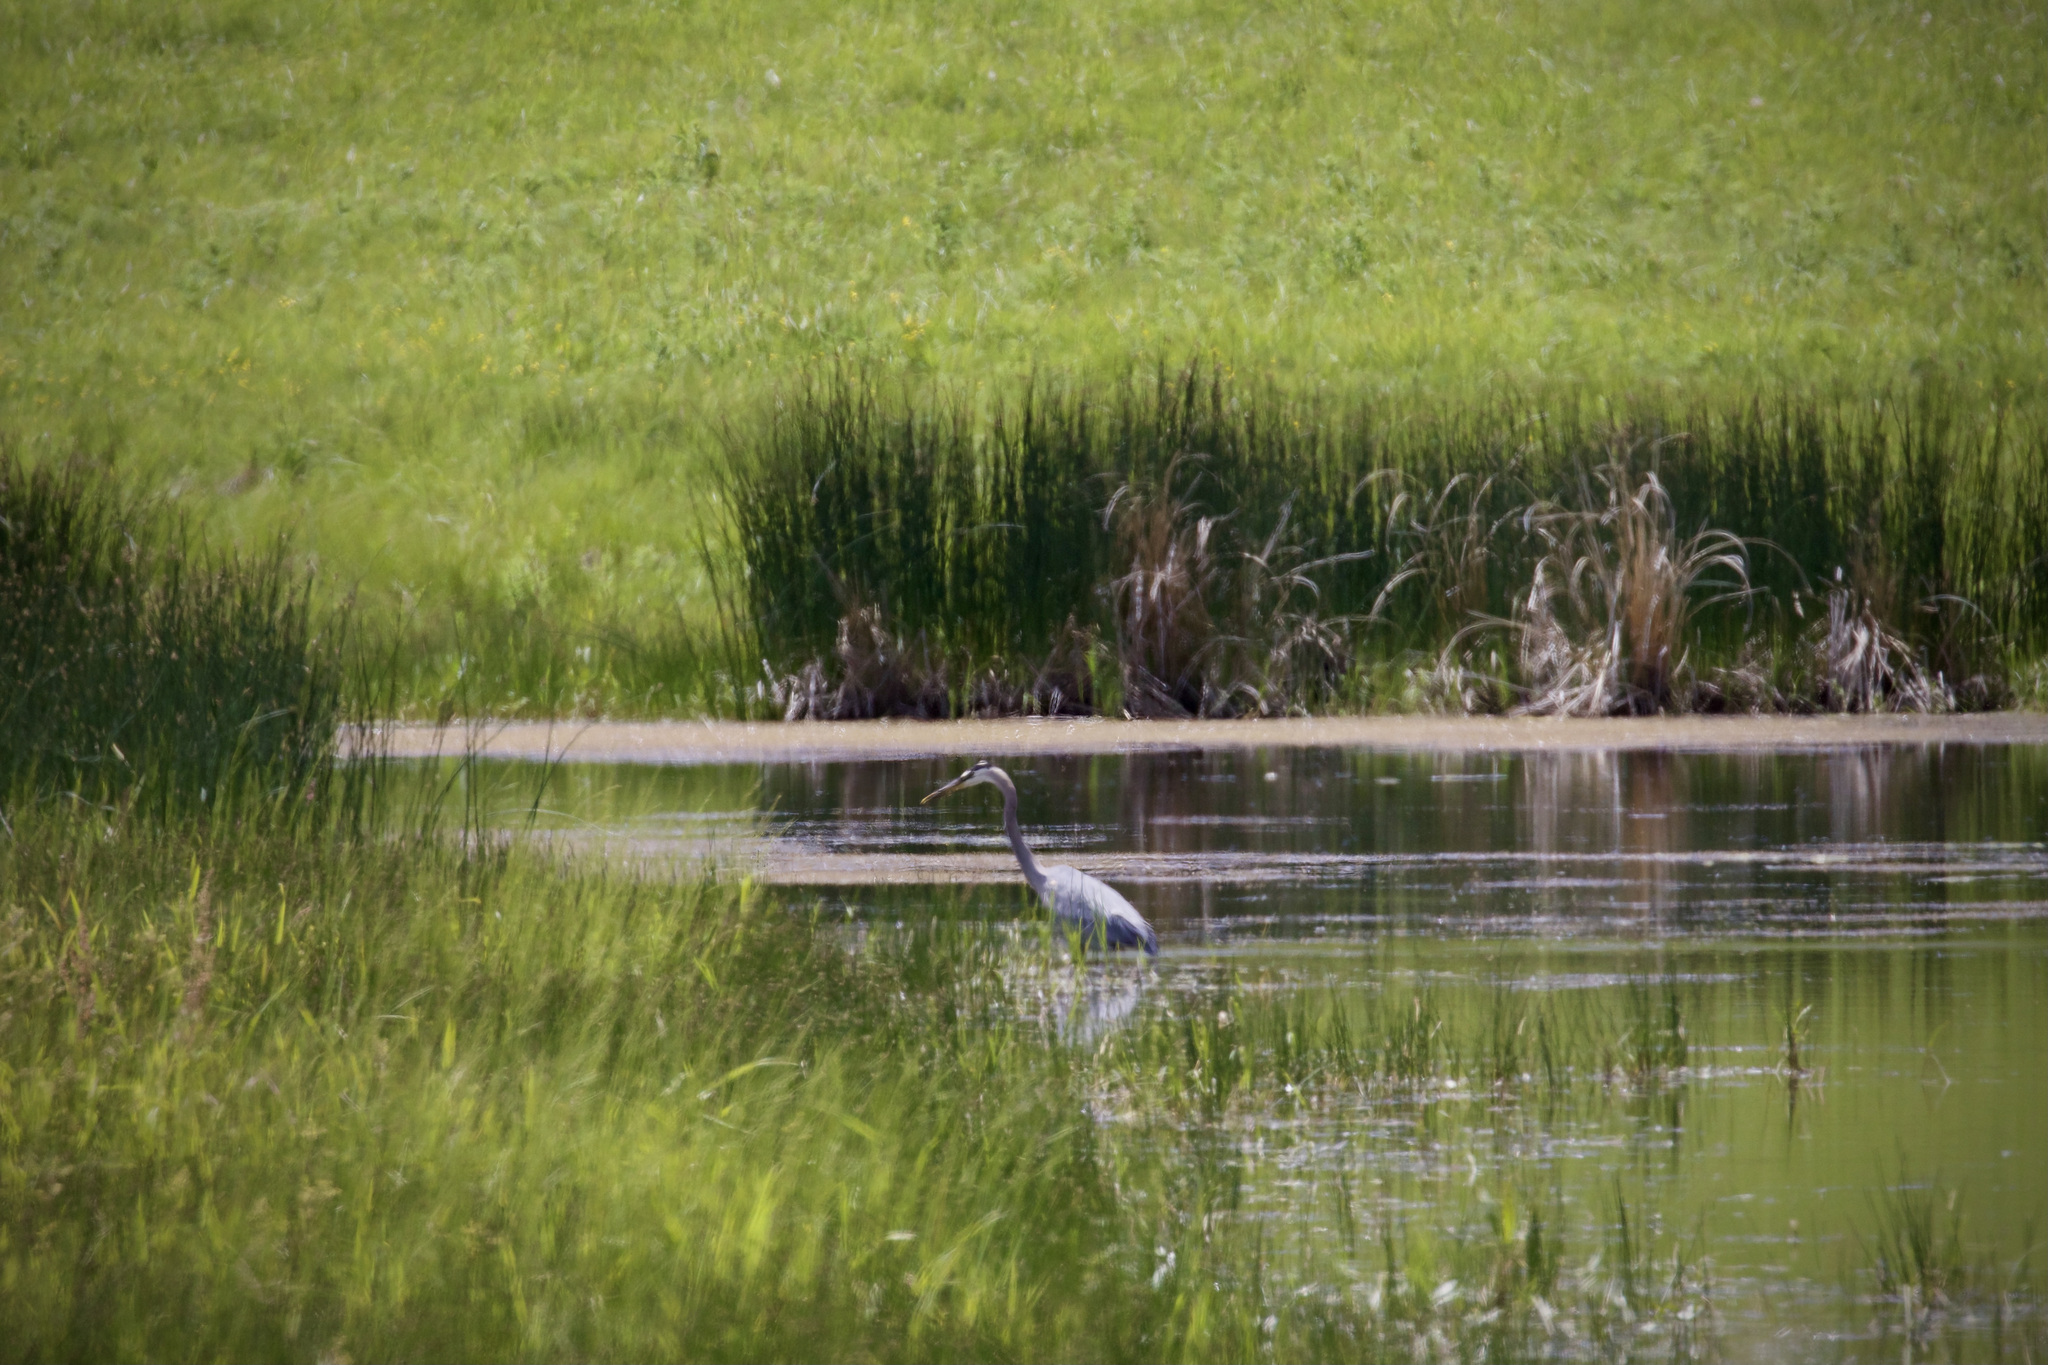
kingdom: Animalia
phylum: Chordata
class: Aves
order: Pelecaniformes
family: Ardeidae
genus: Ardea
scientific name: Ardea herodias
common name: Great blue heron
